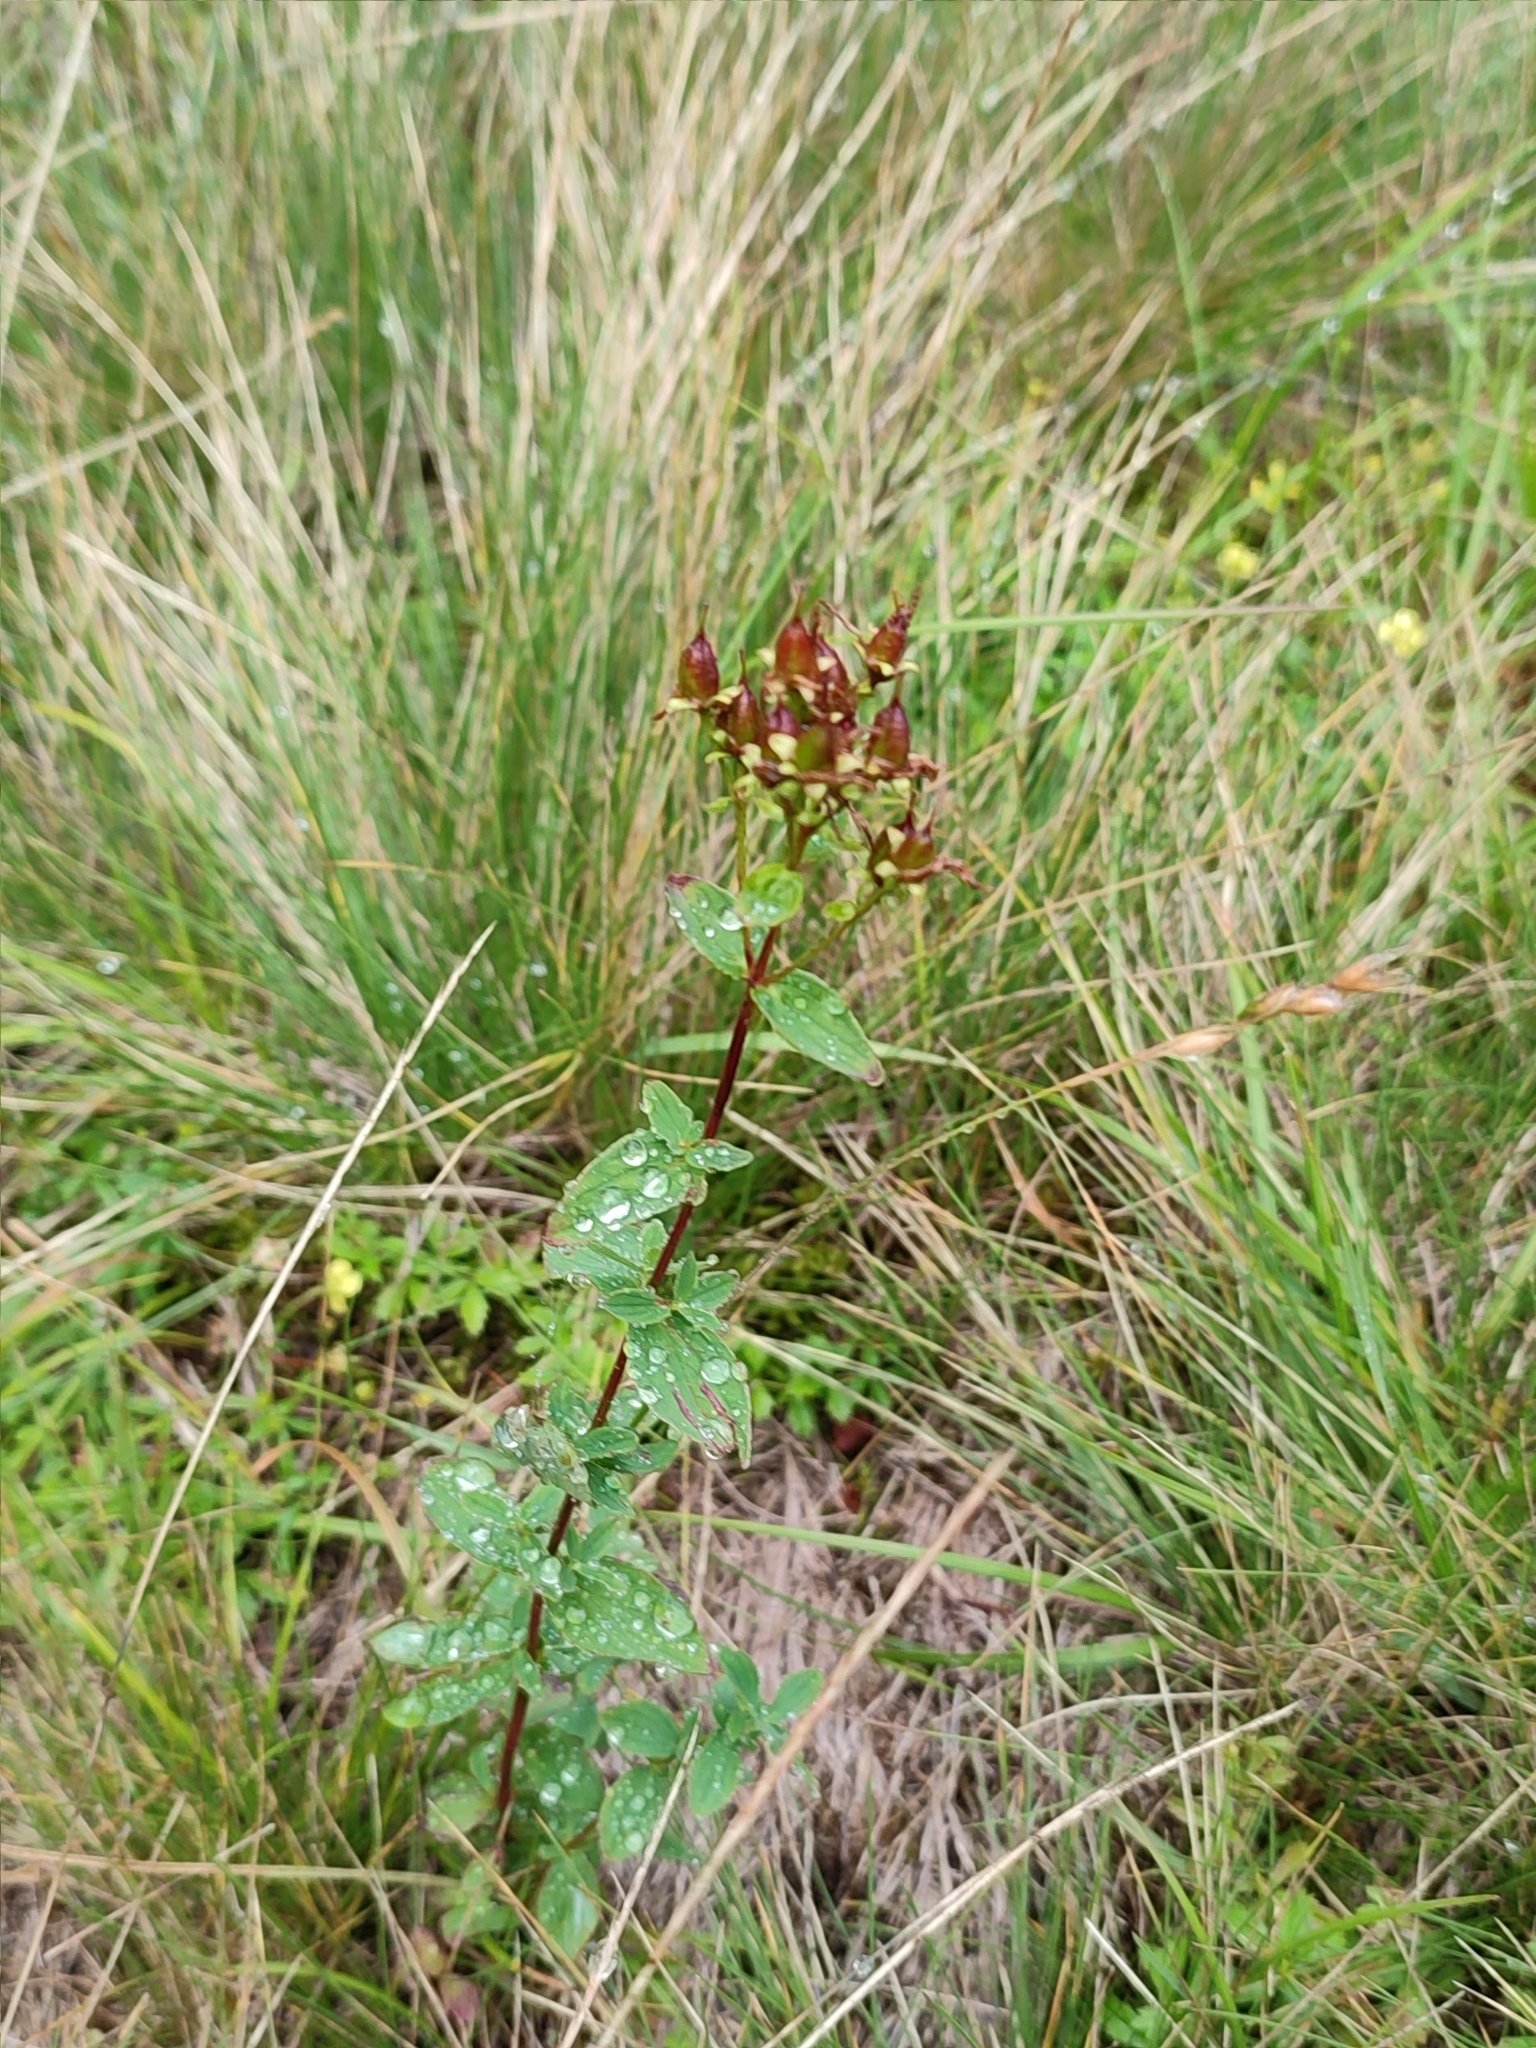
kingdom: Plantae
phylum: Tracheophyta
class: Magnoliopsida
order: Malpighiales
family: Hypericaceae
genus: Hypericum
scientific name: Hypericum maculatum
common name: Imperforate st. john's-wort
